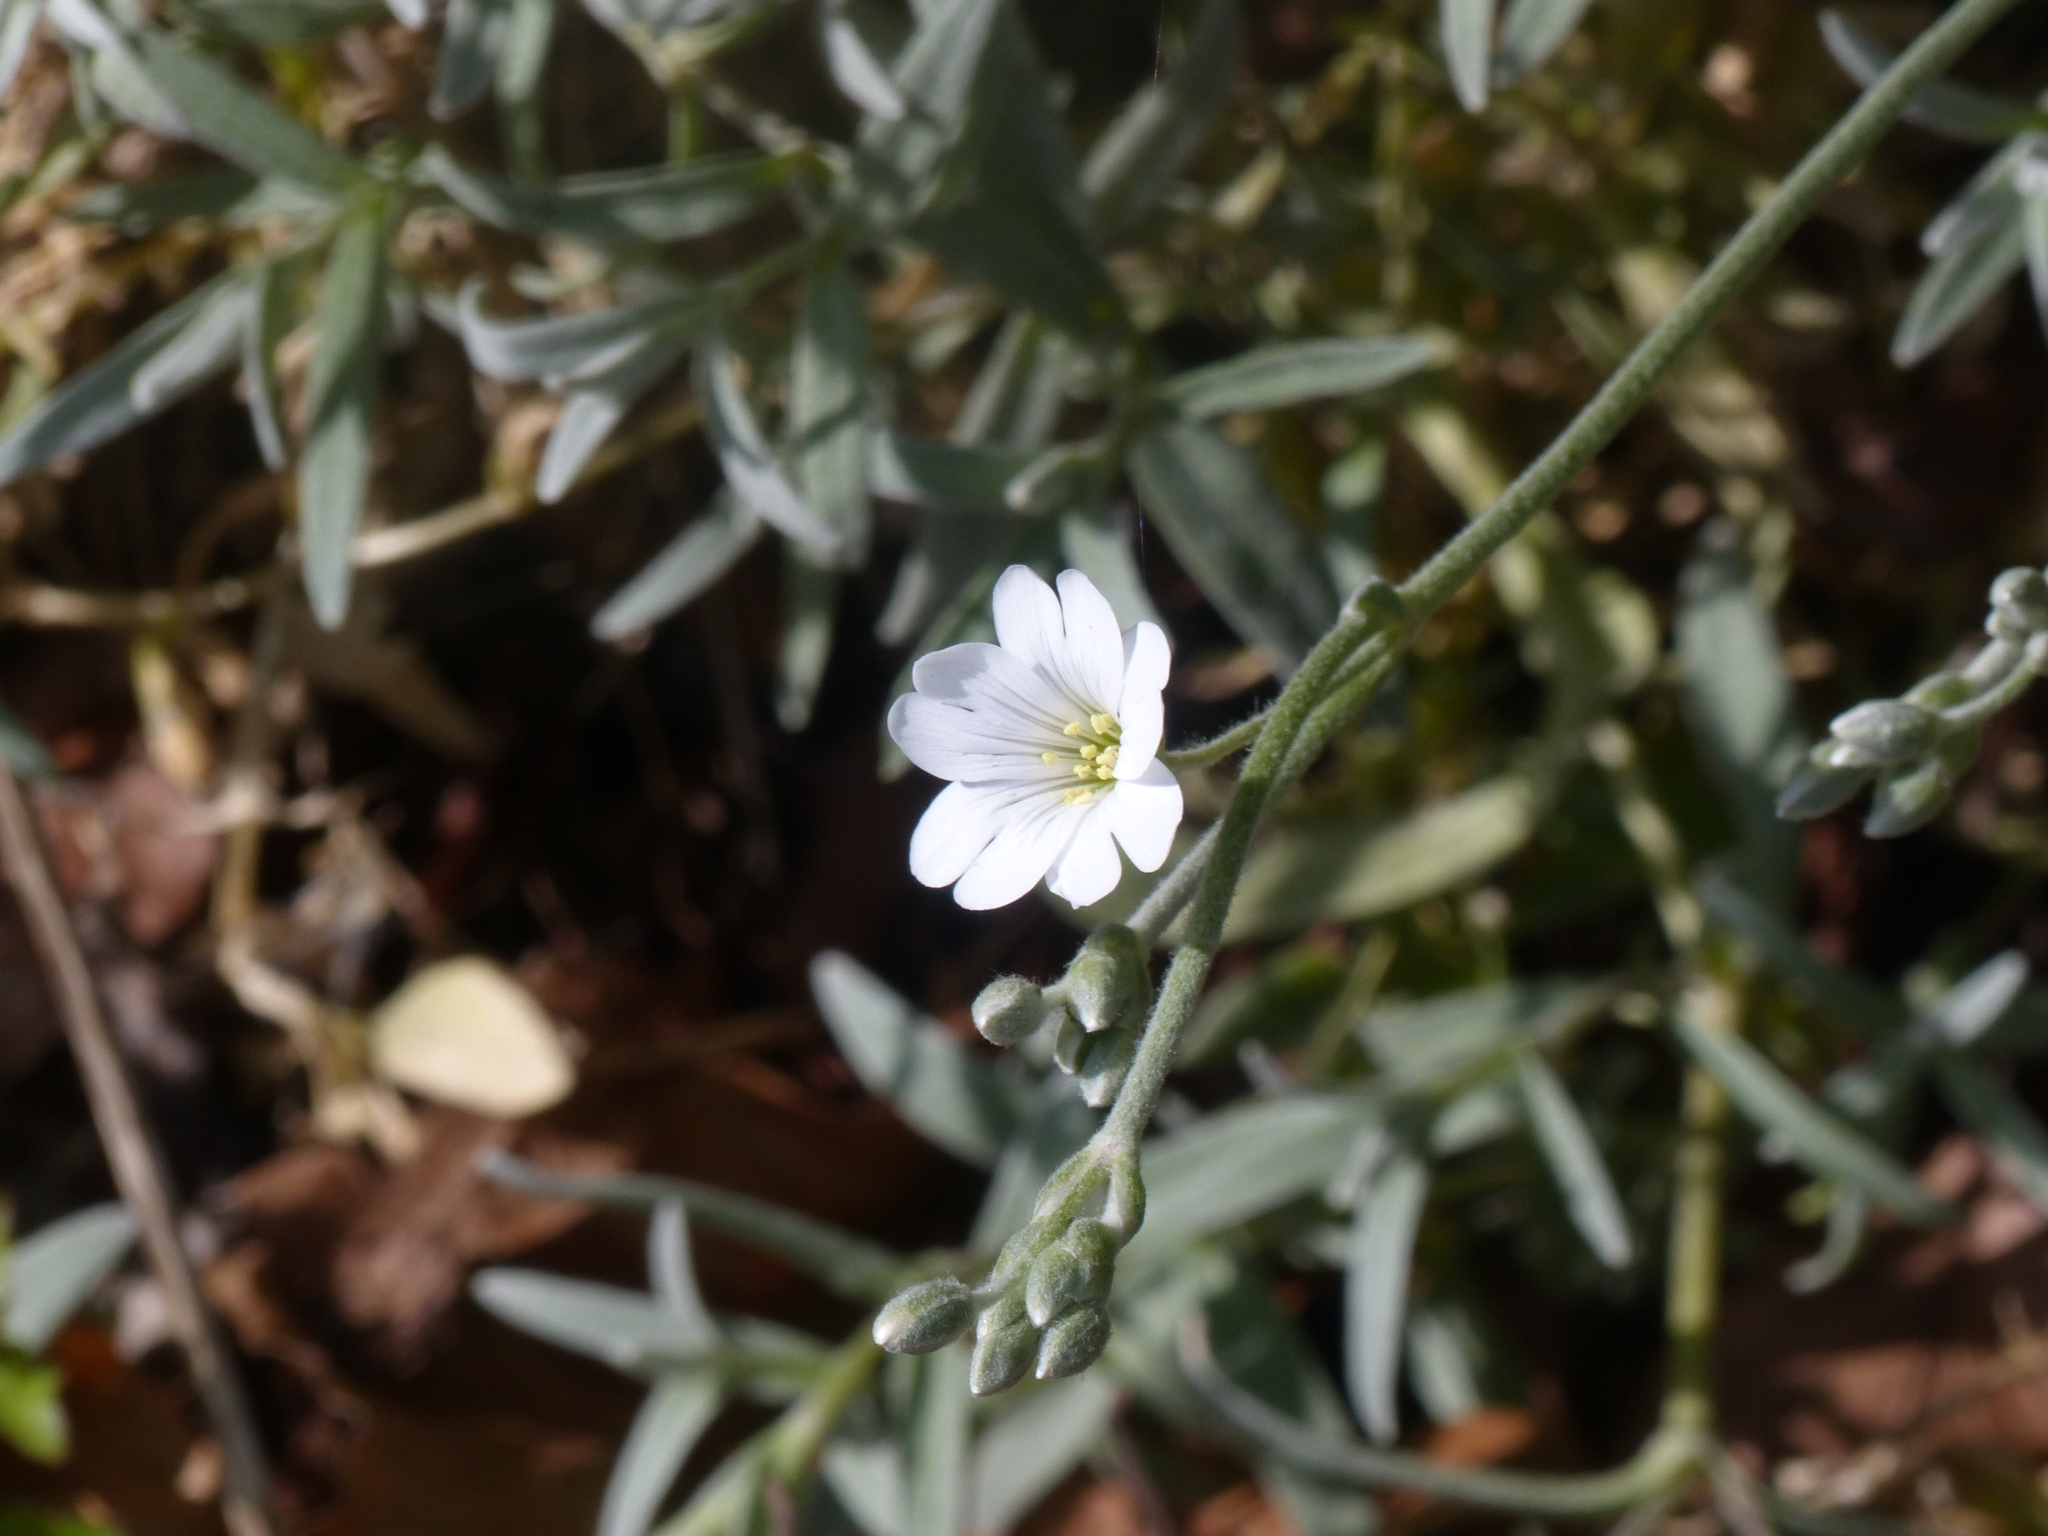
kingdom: Plantae
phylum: Tracheophyta
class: Magnoliopsida
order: Caryophyllales
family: Caryophyllaceae
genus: Cerastium
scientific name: Cerastium tomentosum
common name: Snow-in-summer
